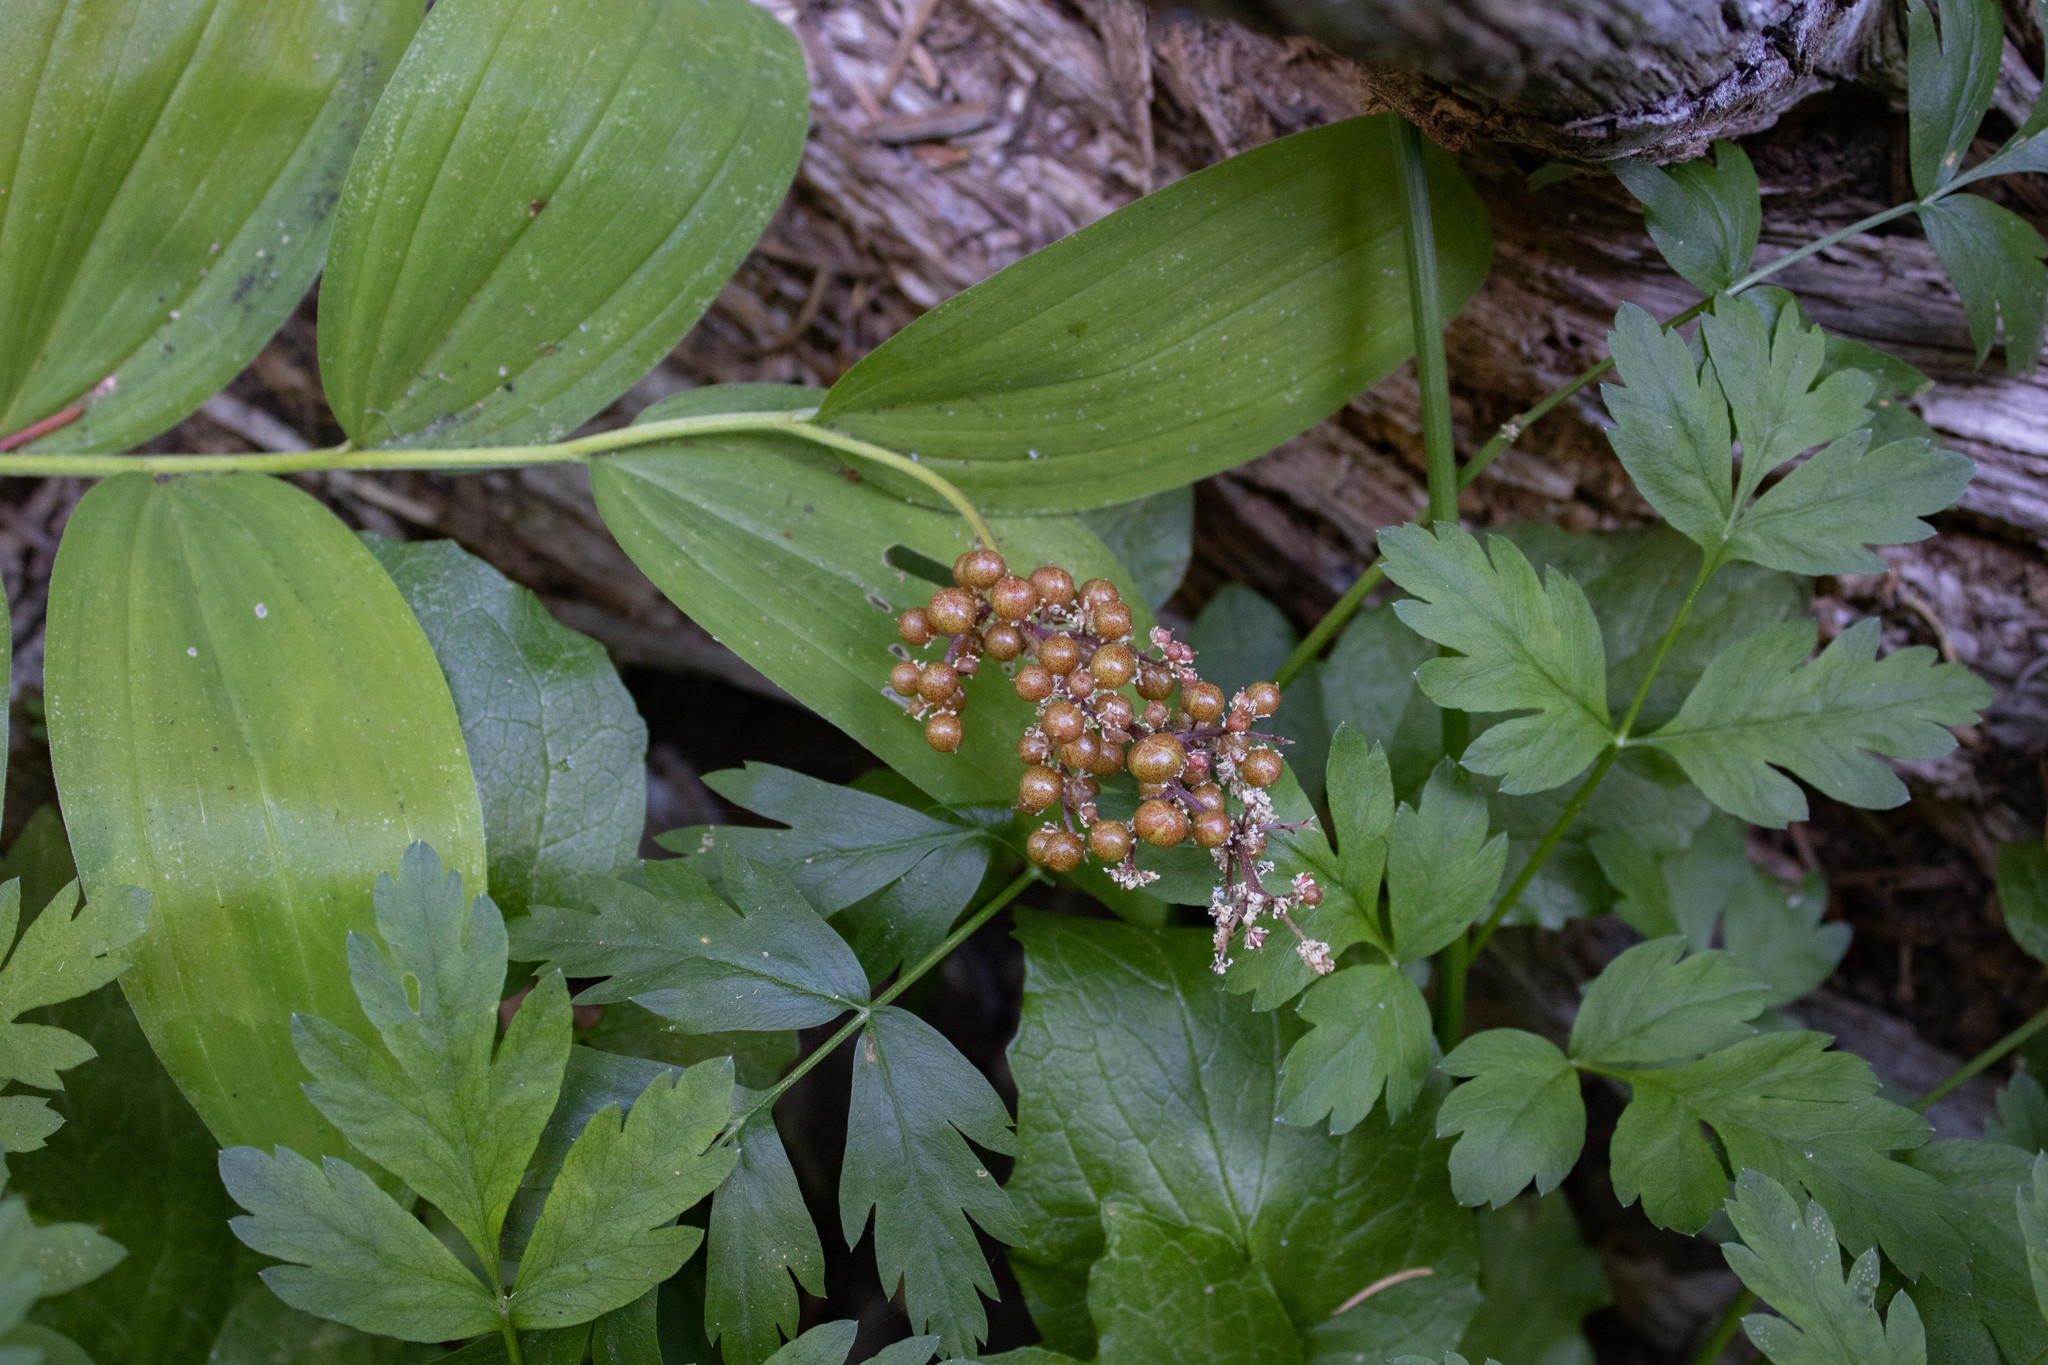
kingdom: Plantae
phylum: Tracheophyta
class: Liliopsida
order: Asparagales
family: Asparagaceae
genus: Maianthemum
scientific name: Maianthemum racemosum
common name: False spikenard
